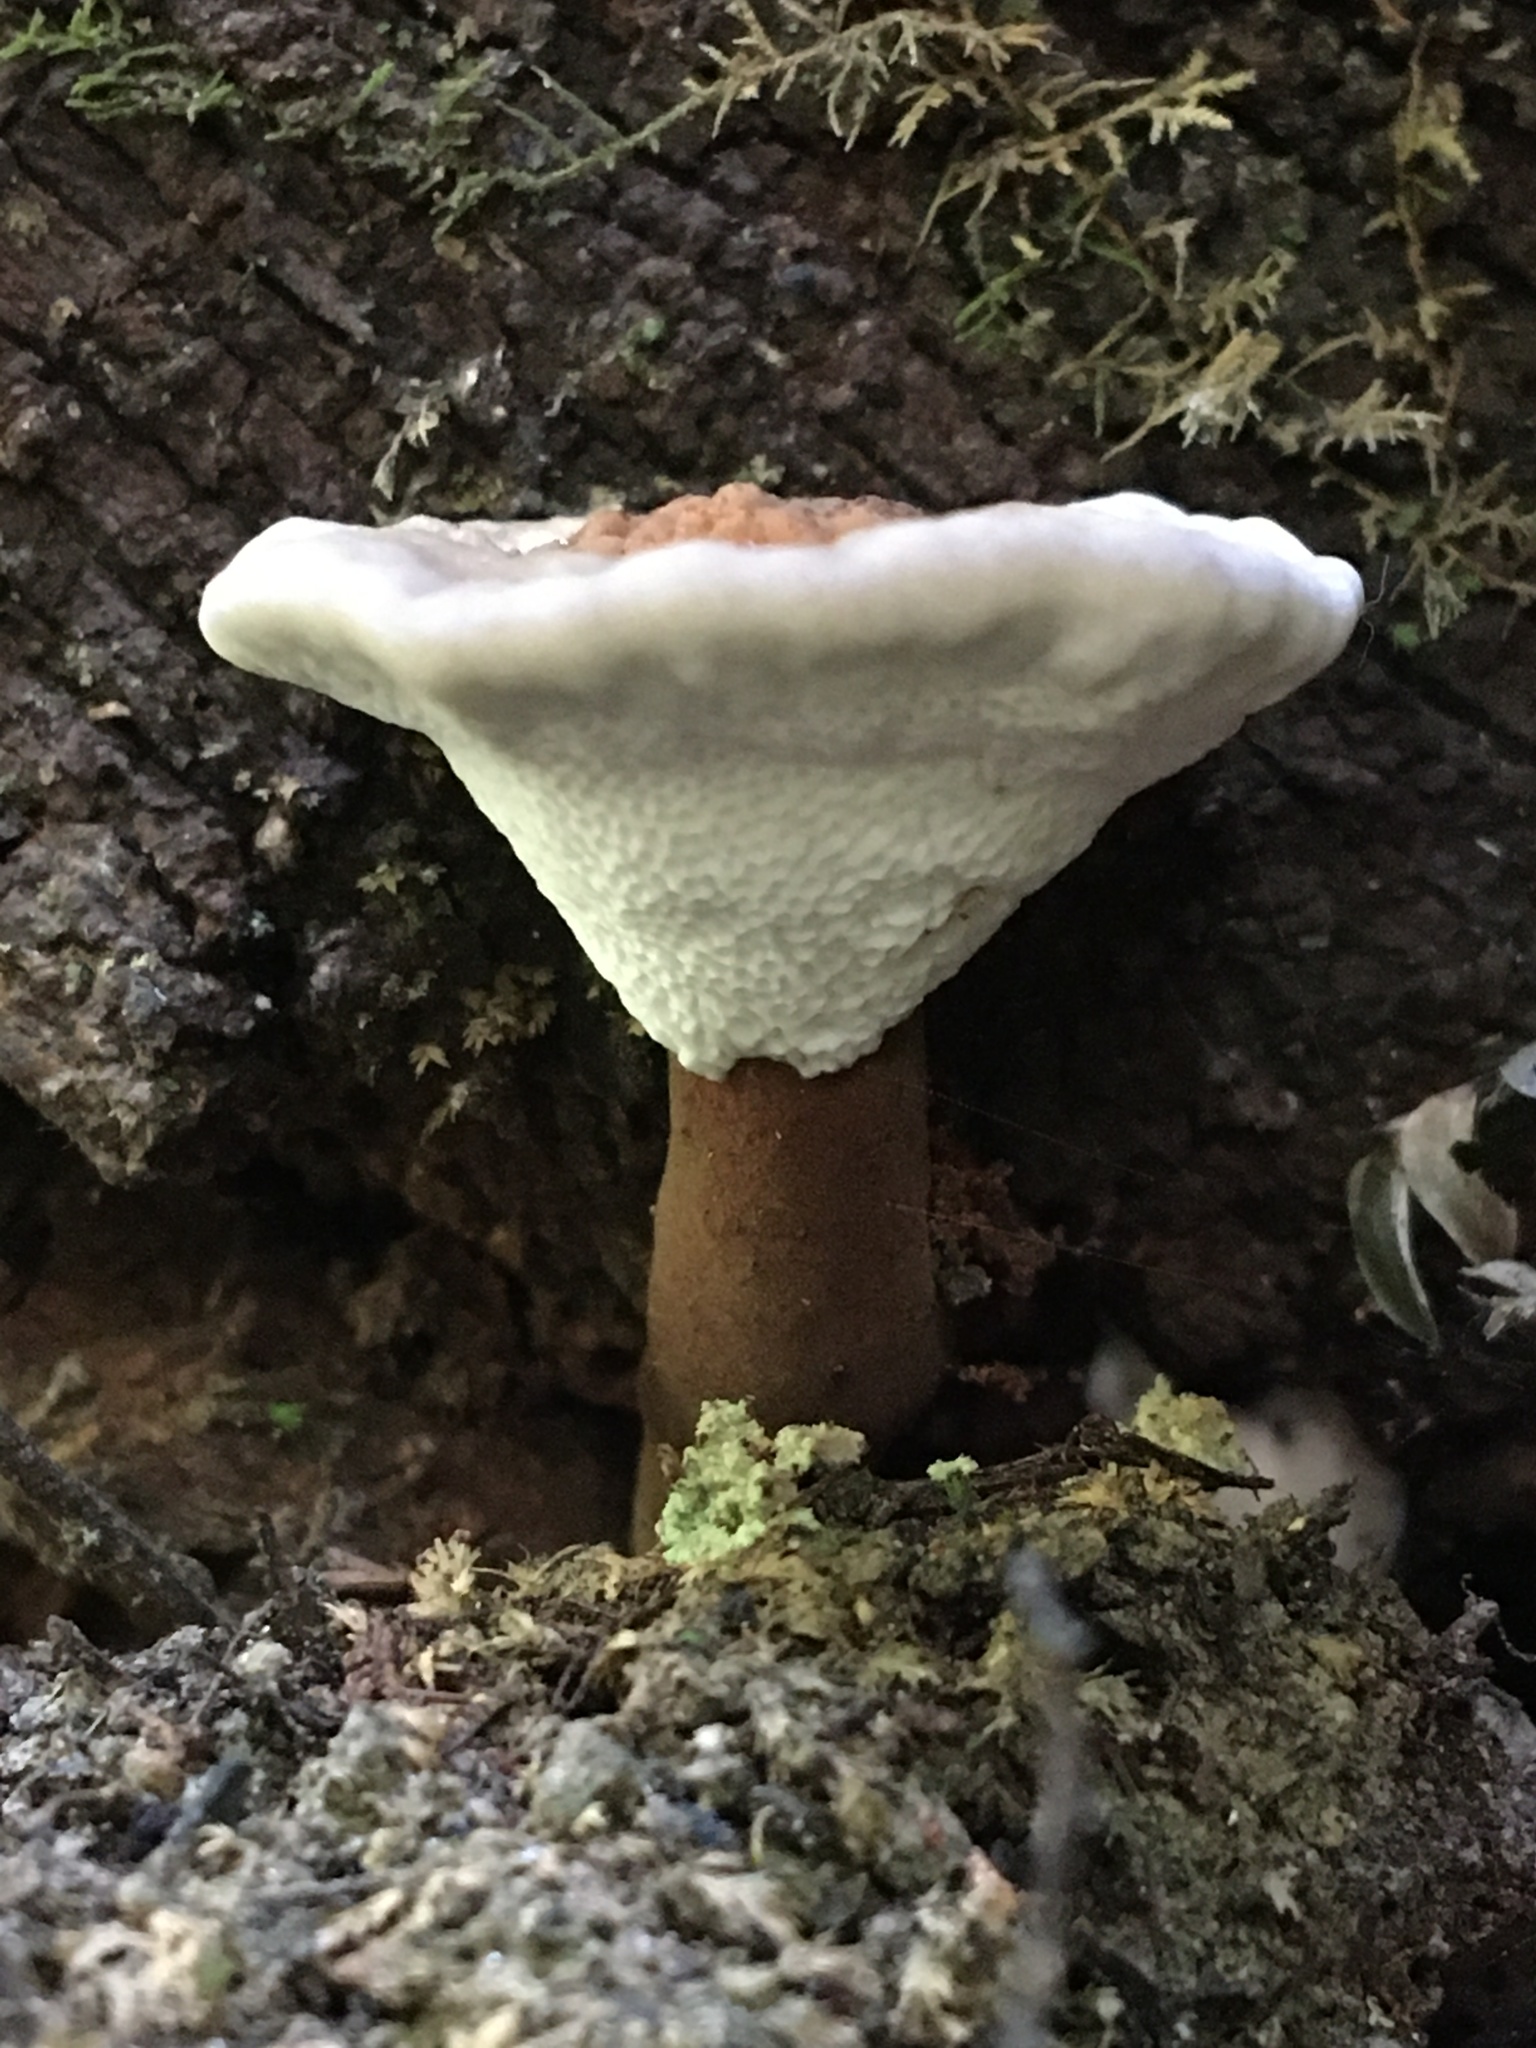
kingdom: Fungi
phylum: Basidiomycota
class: Agaricomycetes
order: Polyporales
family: Ganodermataceae
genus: Sanguinoderma
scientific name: Sanguinoderma rude
